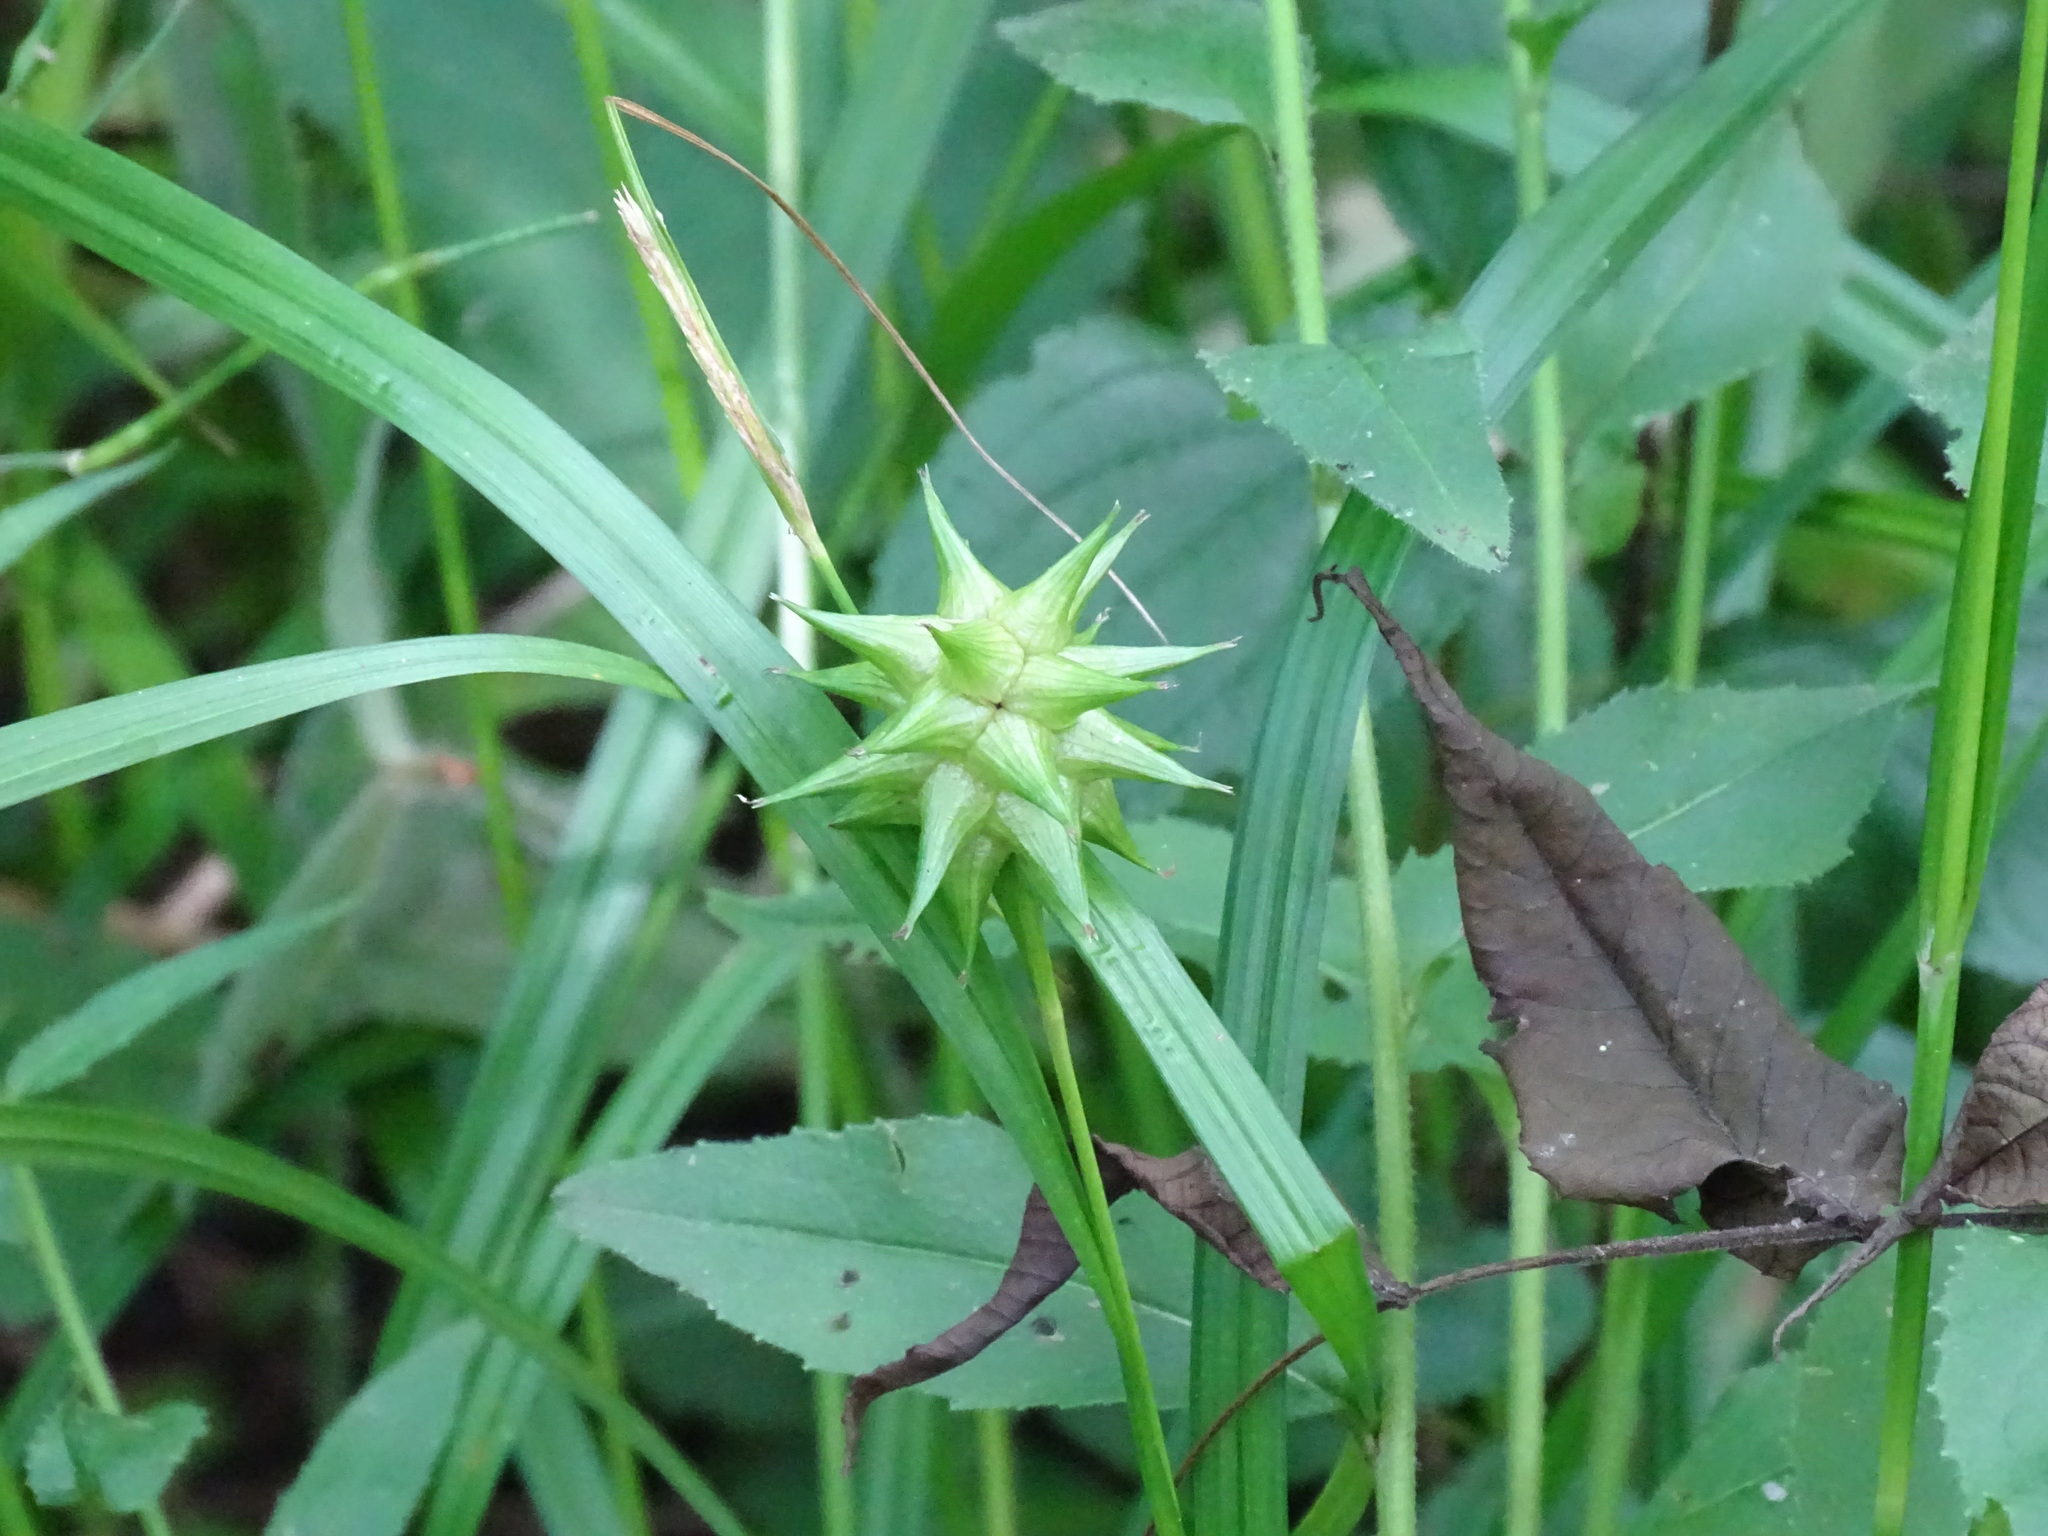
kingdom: Plantae
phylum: Tracheophyta
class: Liliopsida
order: Poales
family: Cyperaceae
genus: Carex
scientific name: Carex grayi
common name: Asa gray's sedge
